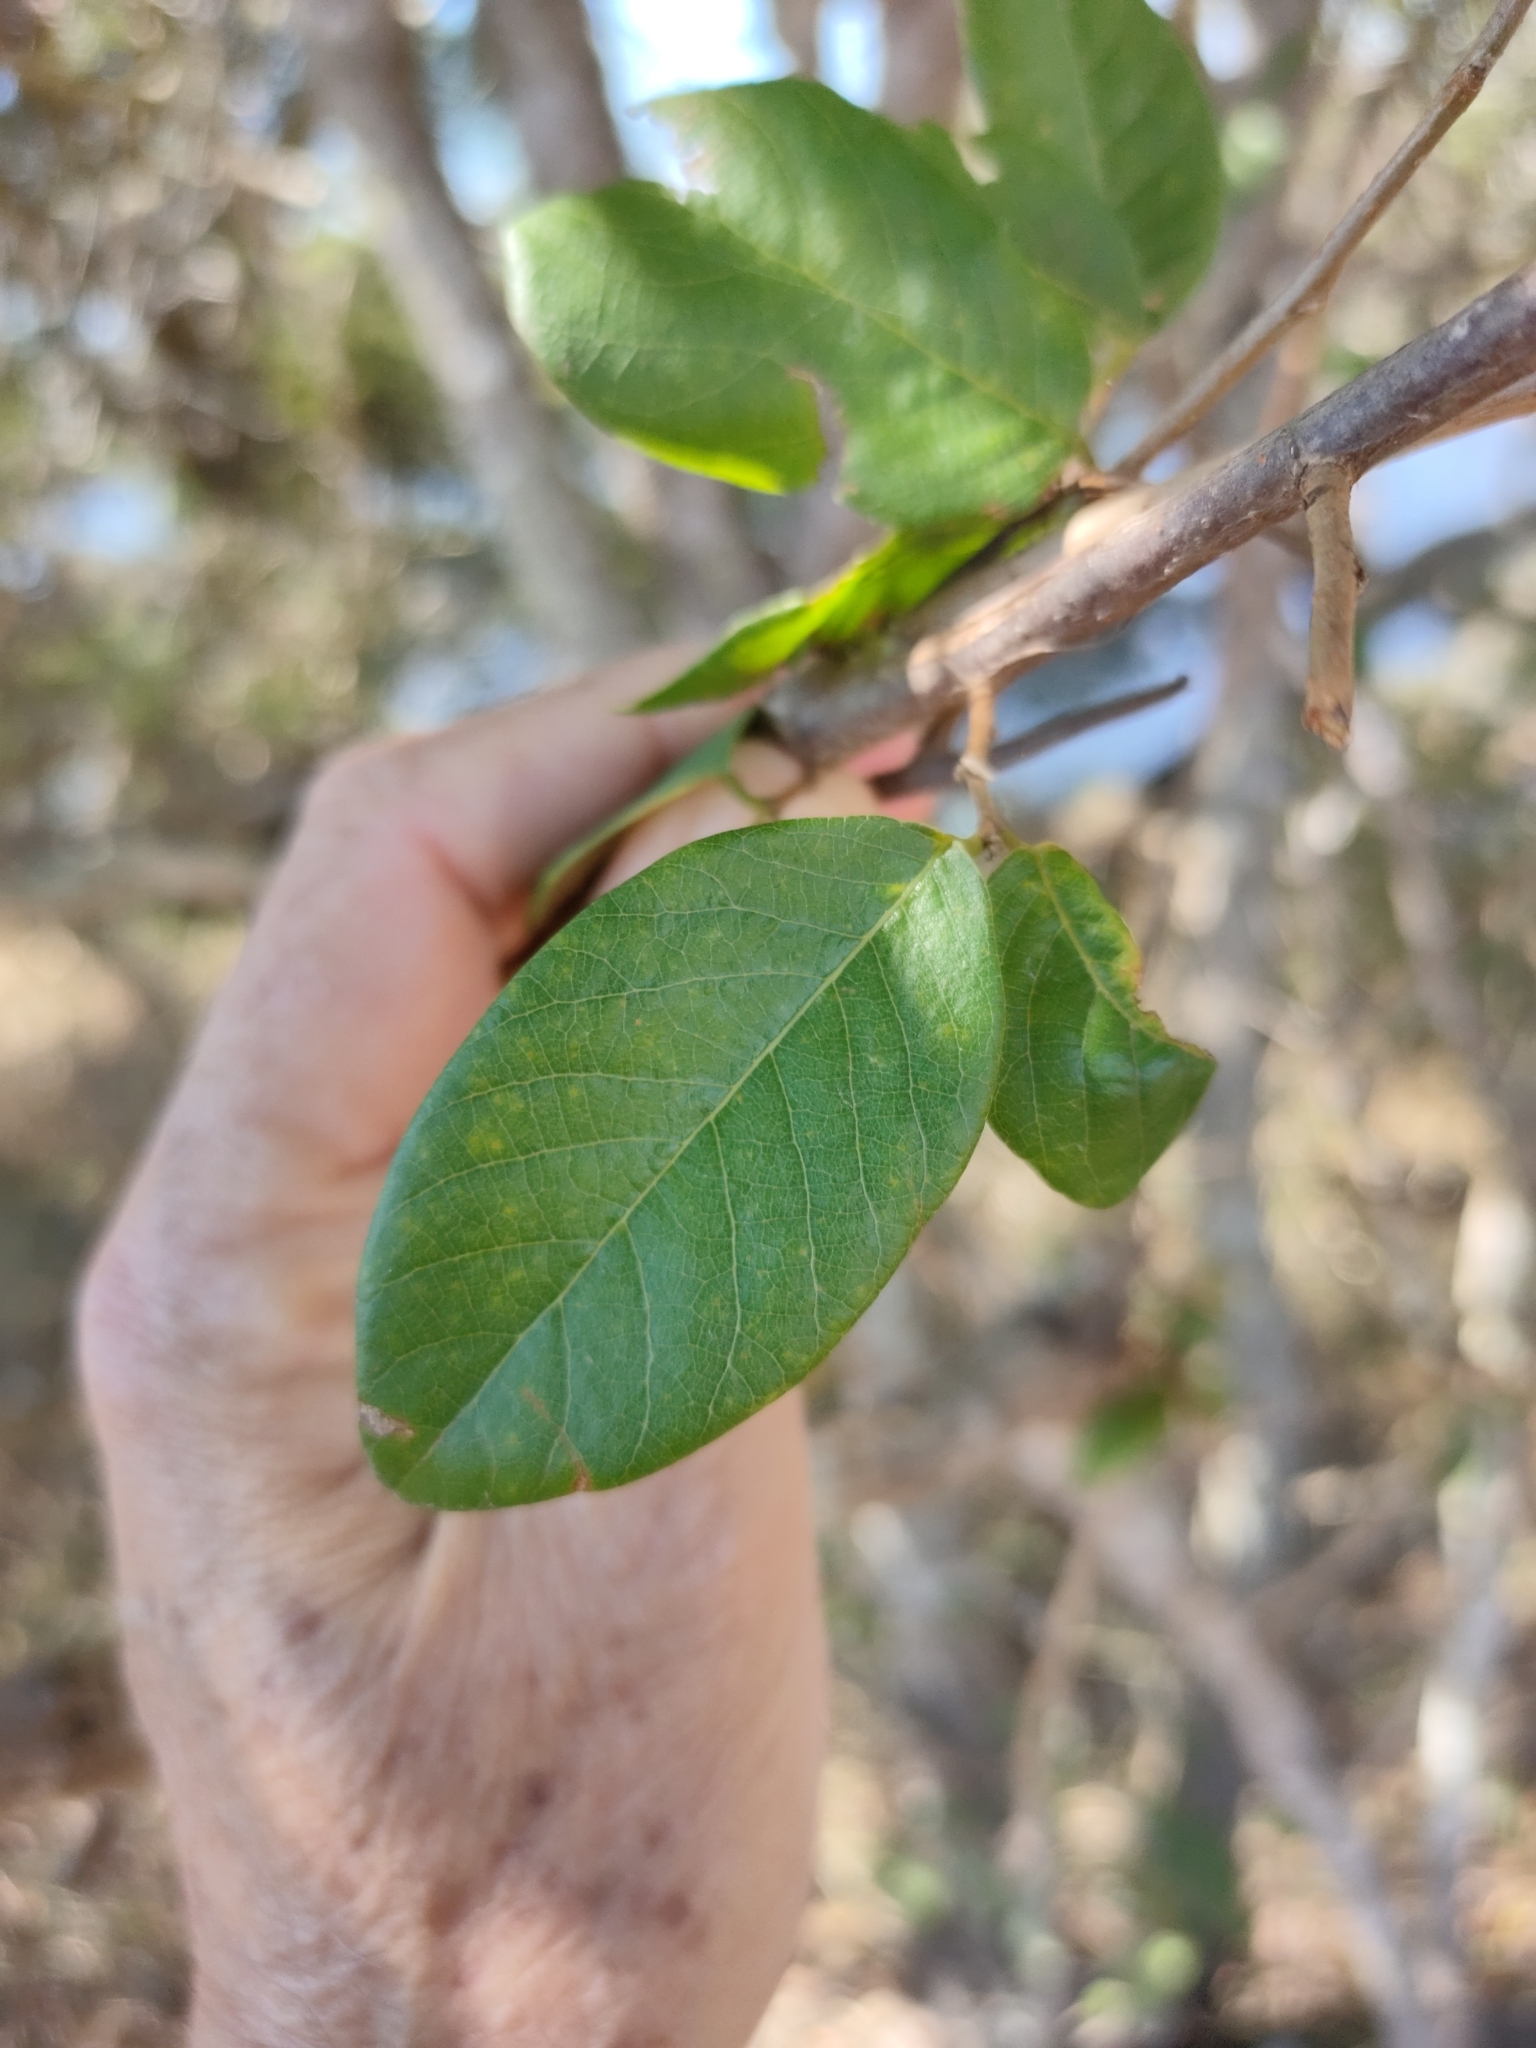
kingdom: Plantae
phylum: Tracheophyta
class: Magnoliopsida
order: Malpighiales
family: Phyllanthaceae
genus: Bridelia
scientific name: Bridelia leichhardtii
